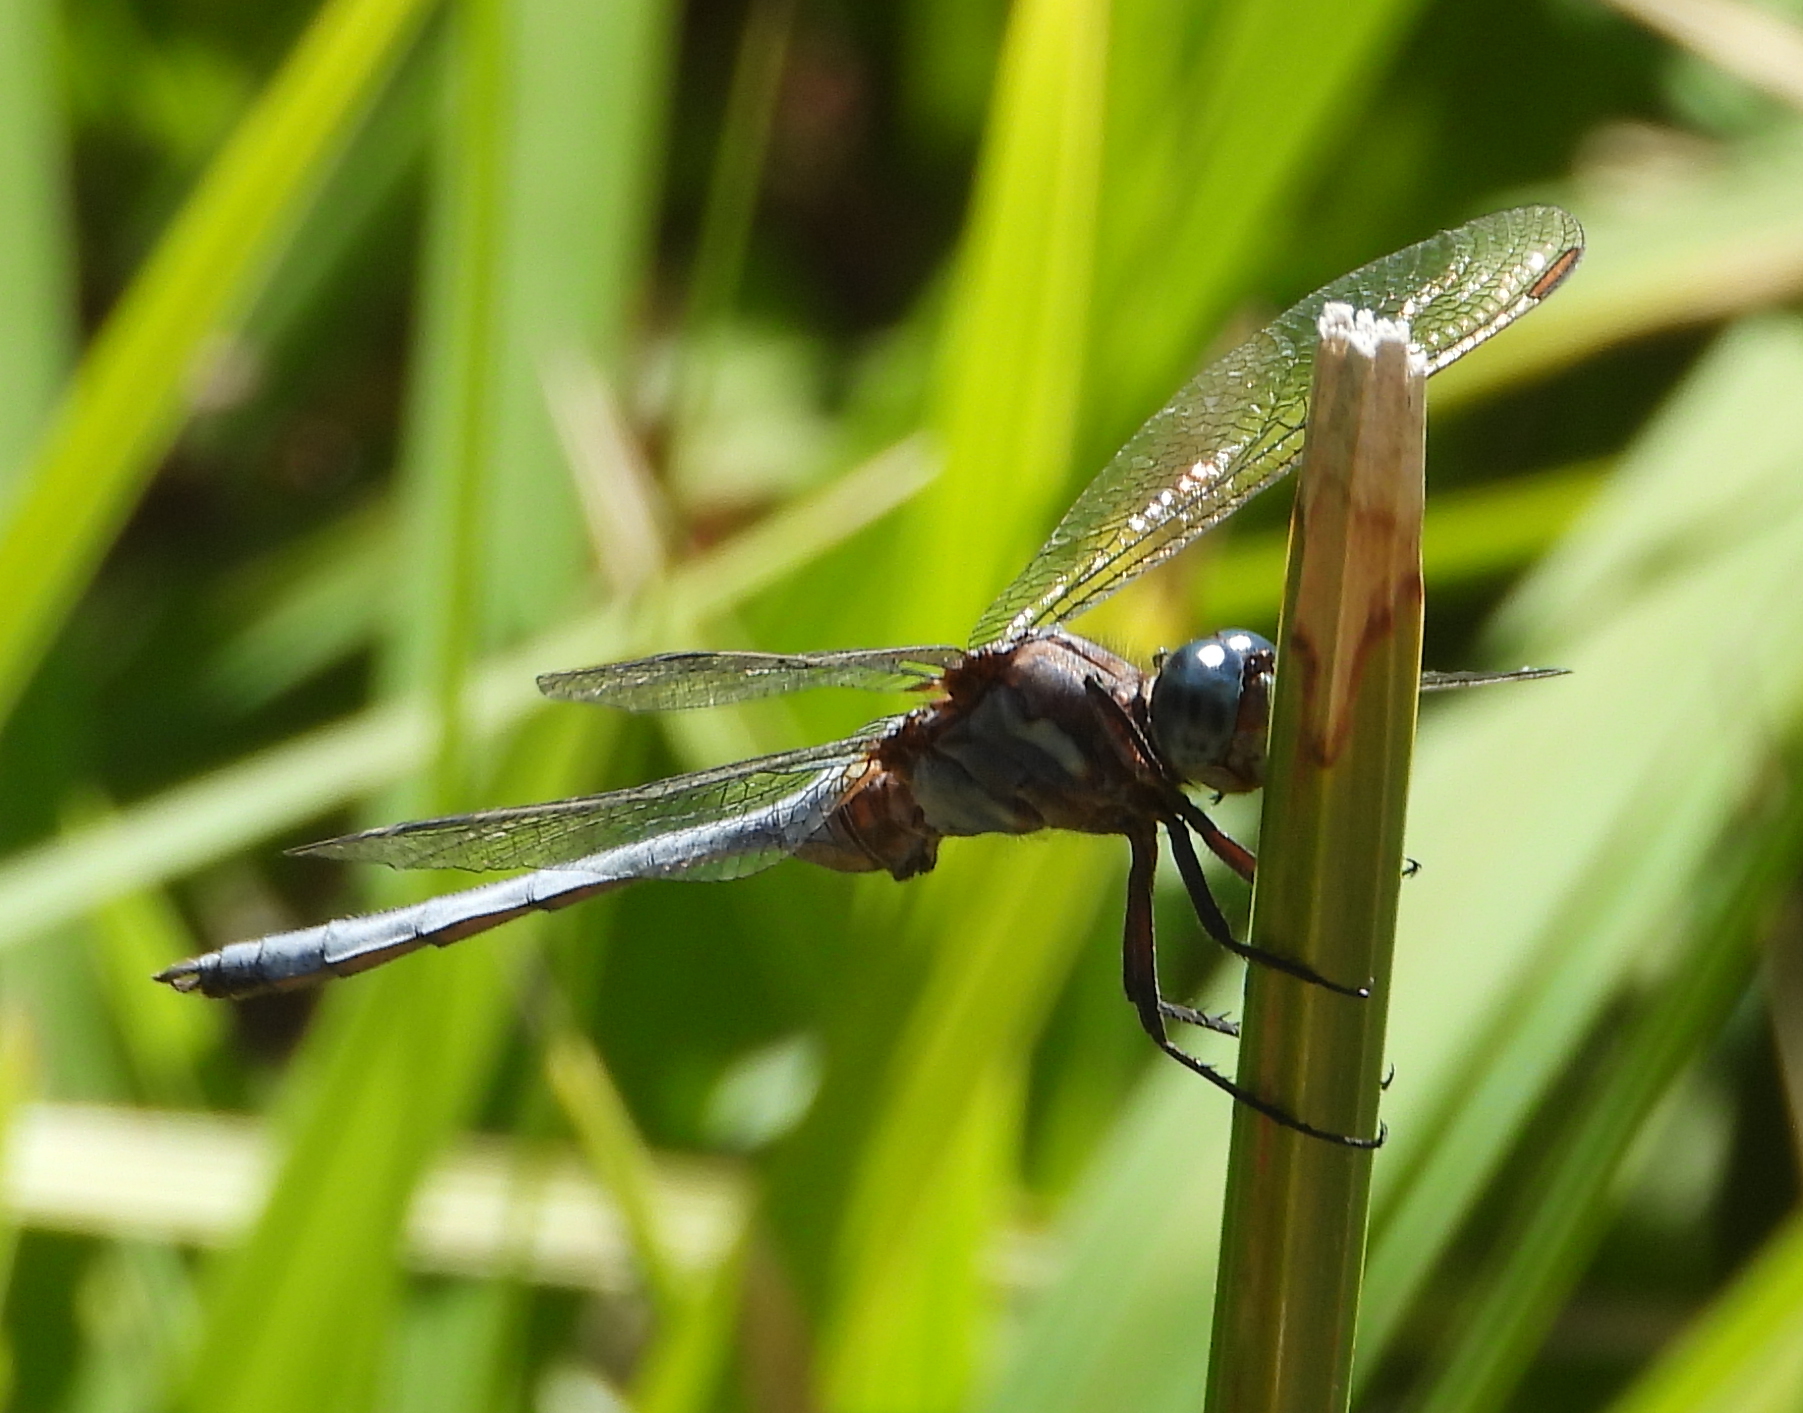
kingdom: Animalia
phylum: Arthropoda
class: Insecta
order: Odonata
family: Libellulidae
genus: Orthetrum
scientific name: Orthetrum julia
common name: Julia skimmer
